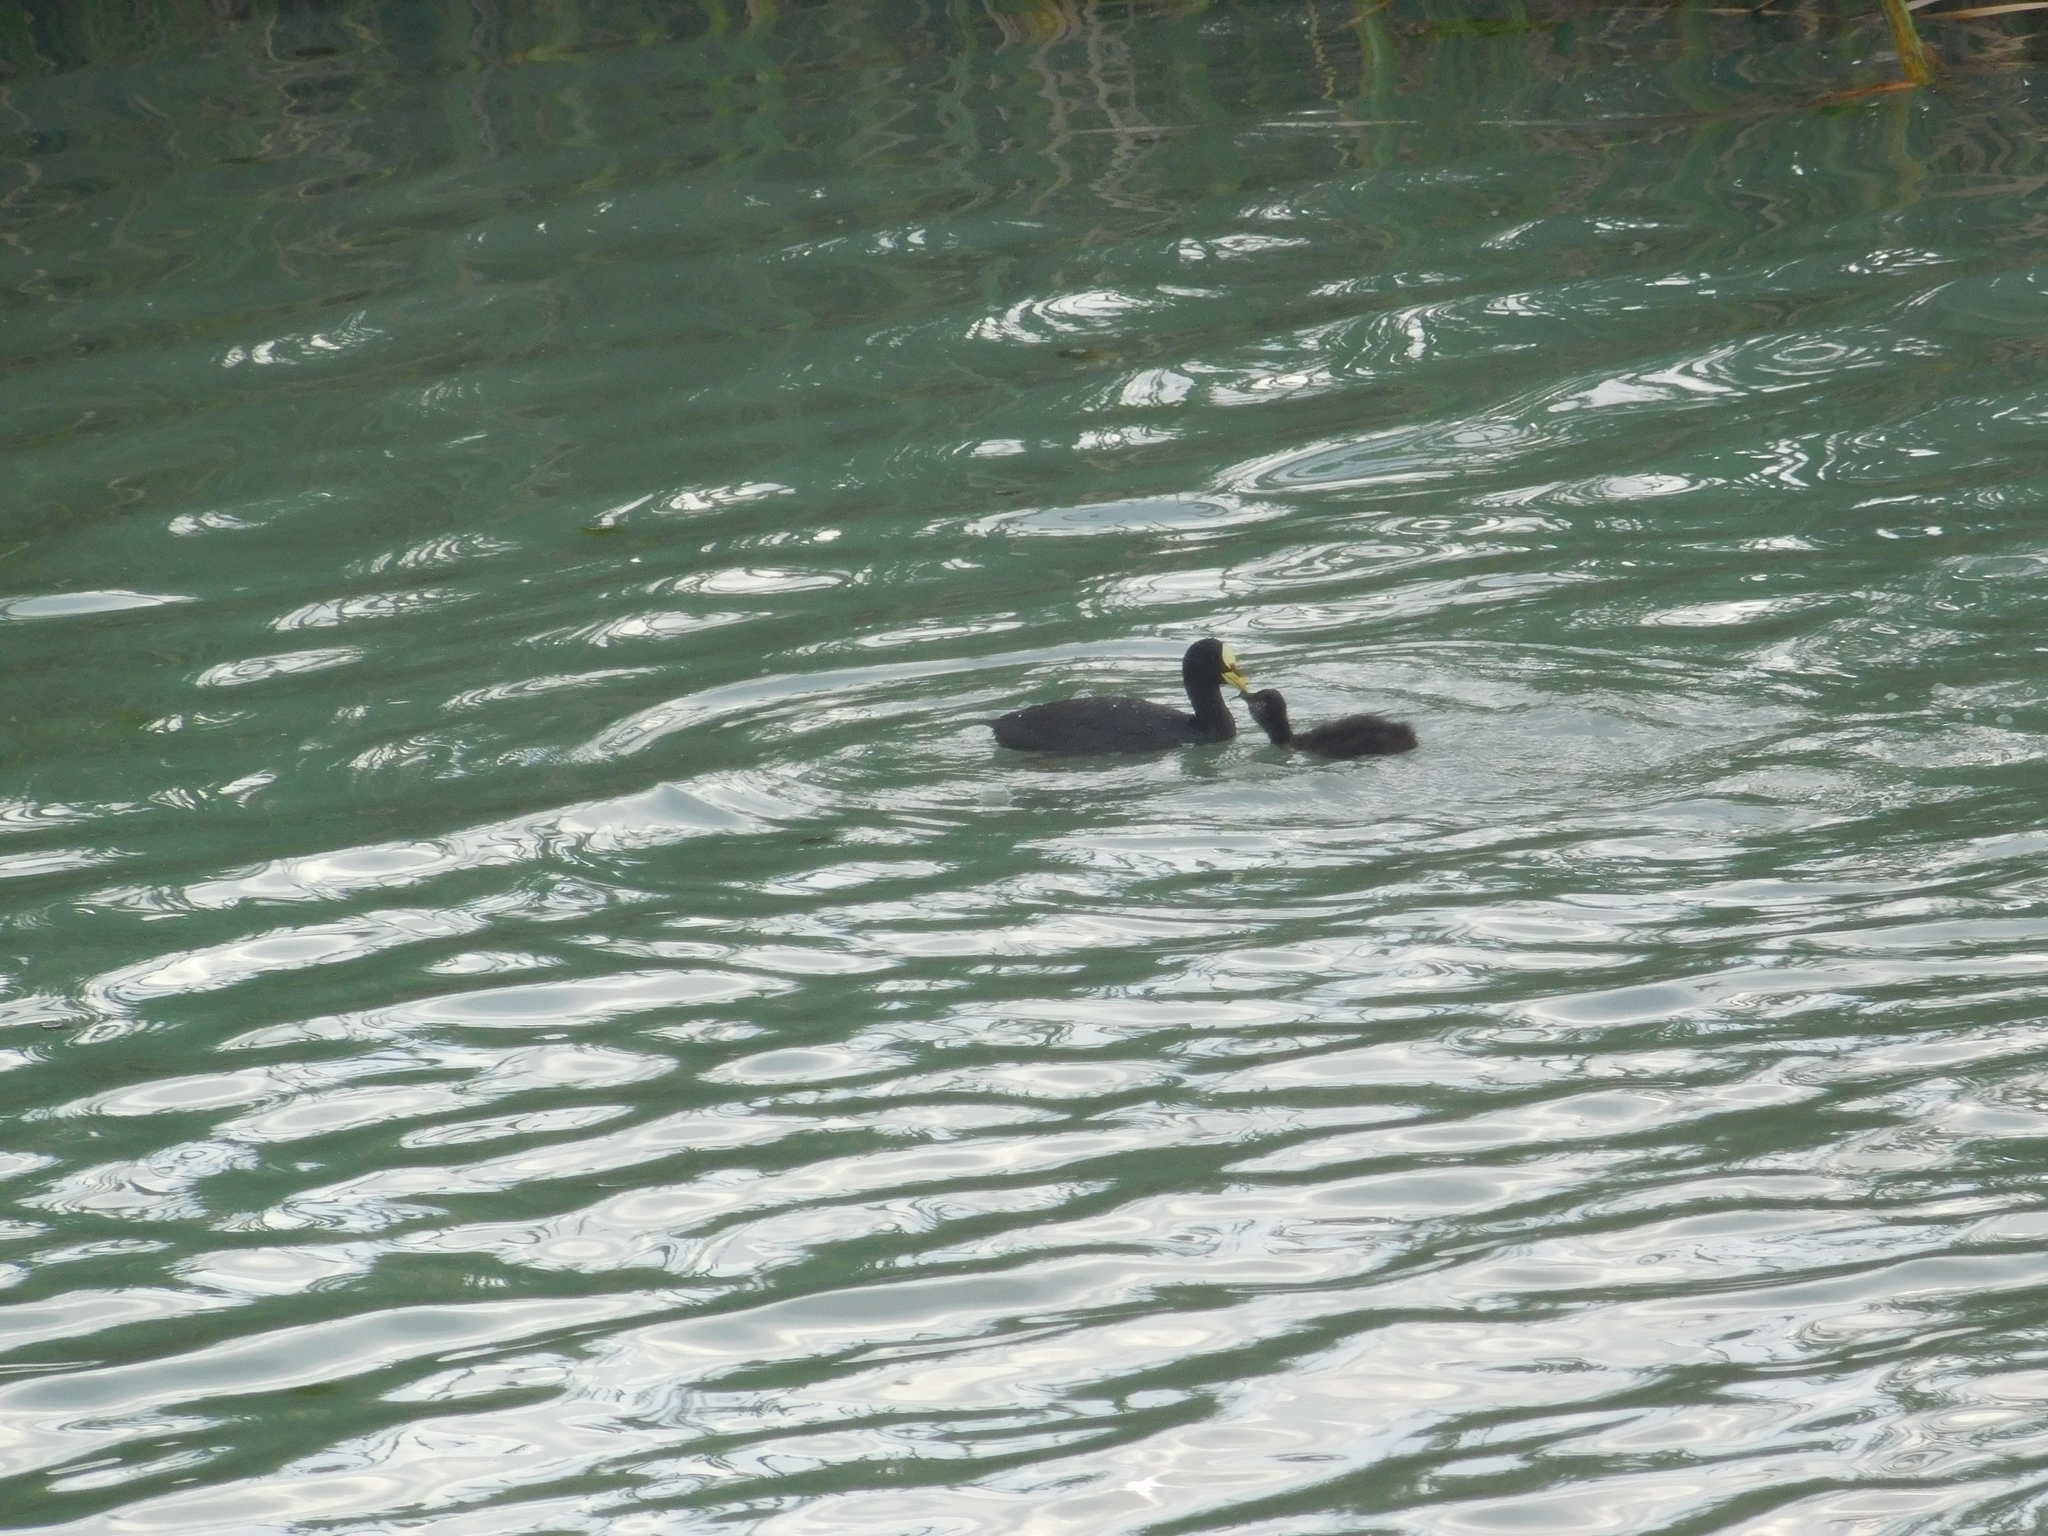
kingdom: Animalia
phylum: Chordata
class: Aves
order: Gruiformes
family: Rallidae
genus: Fulica
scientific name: Fulica armillata
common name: Red-gartered coot
